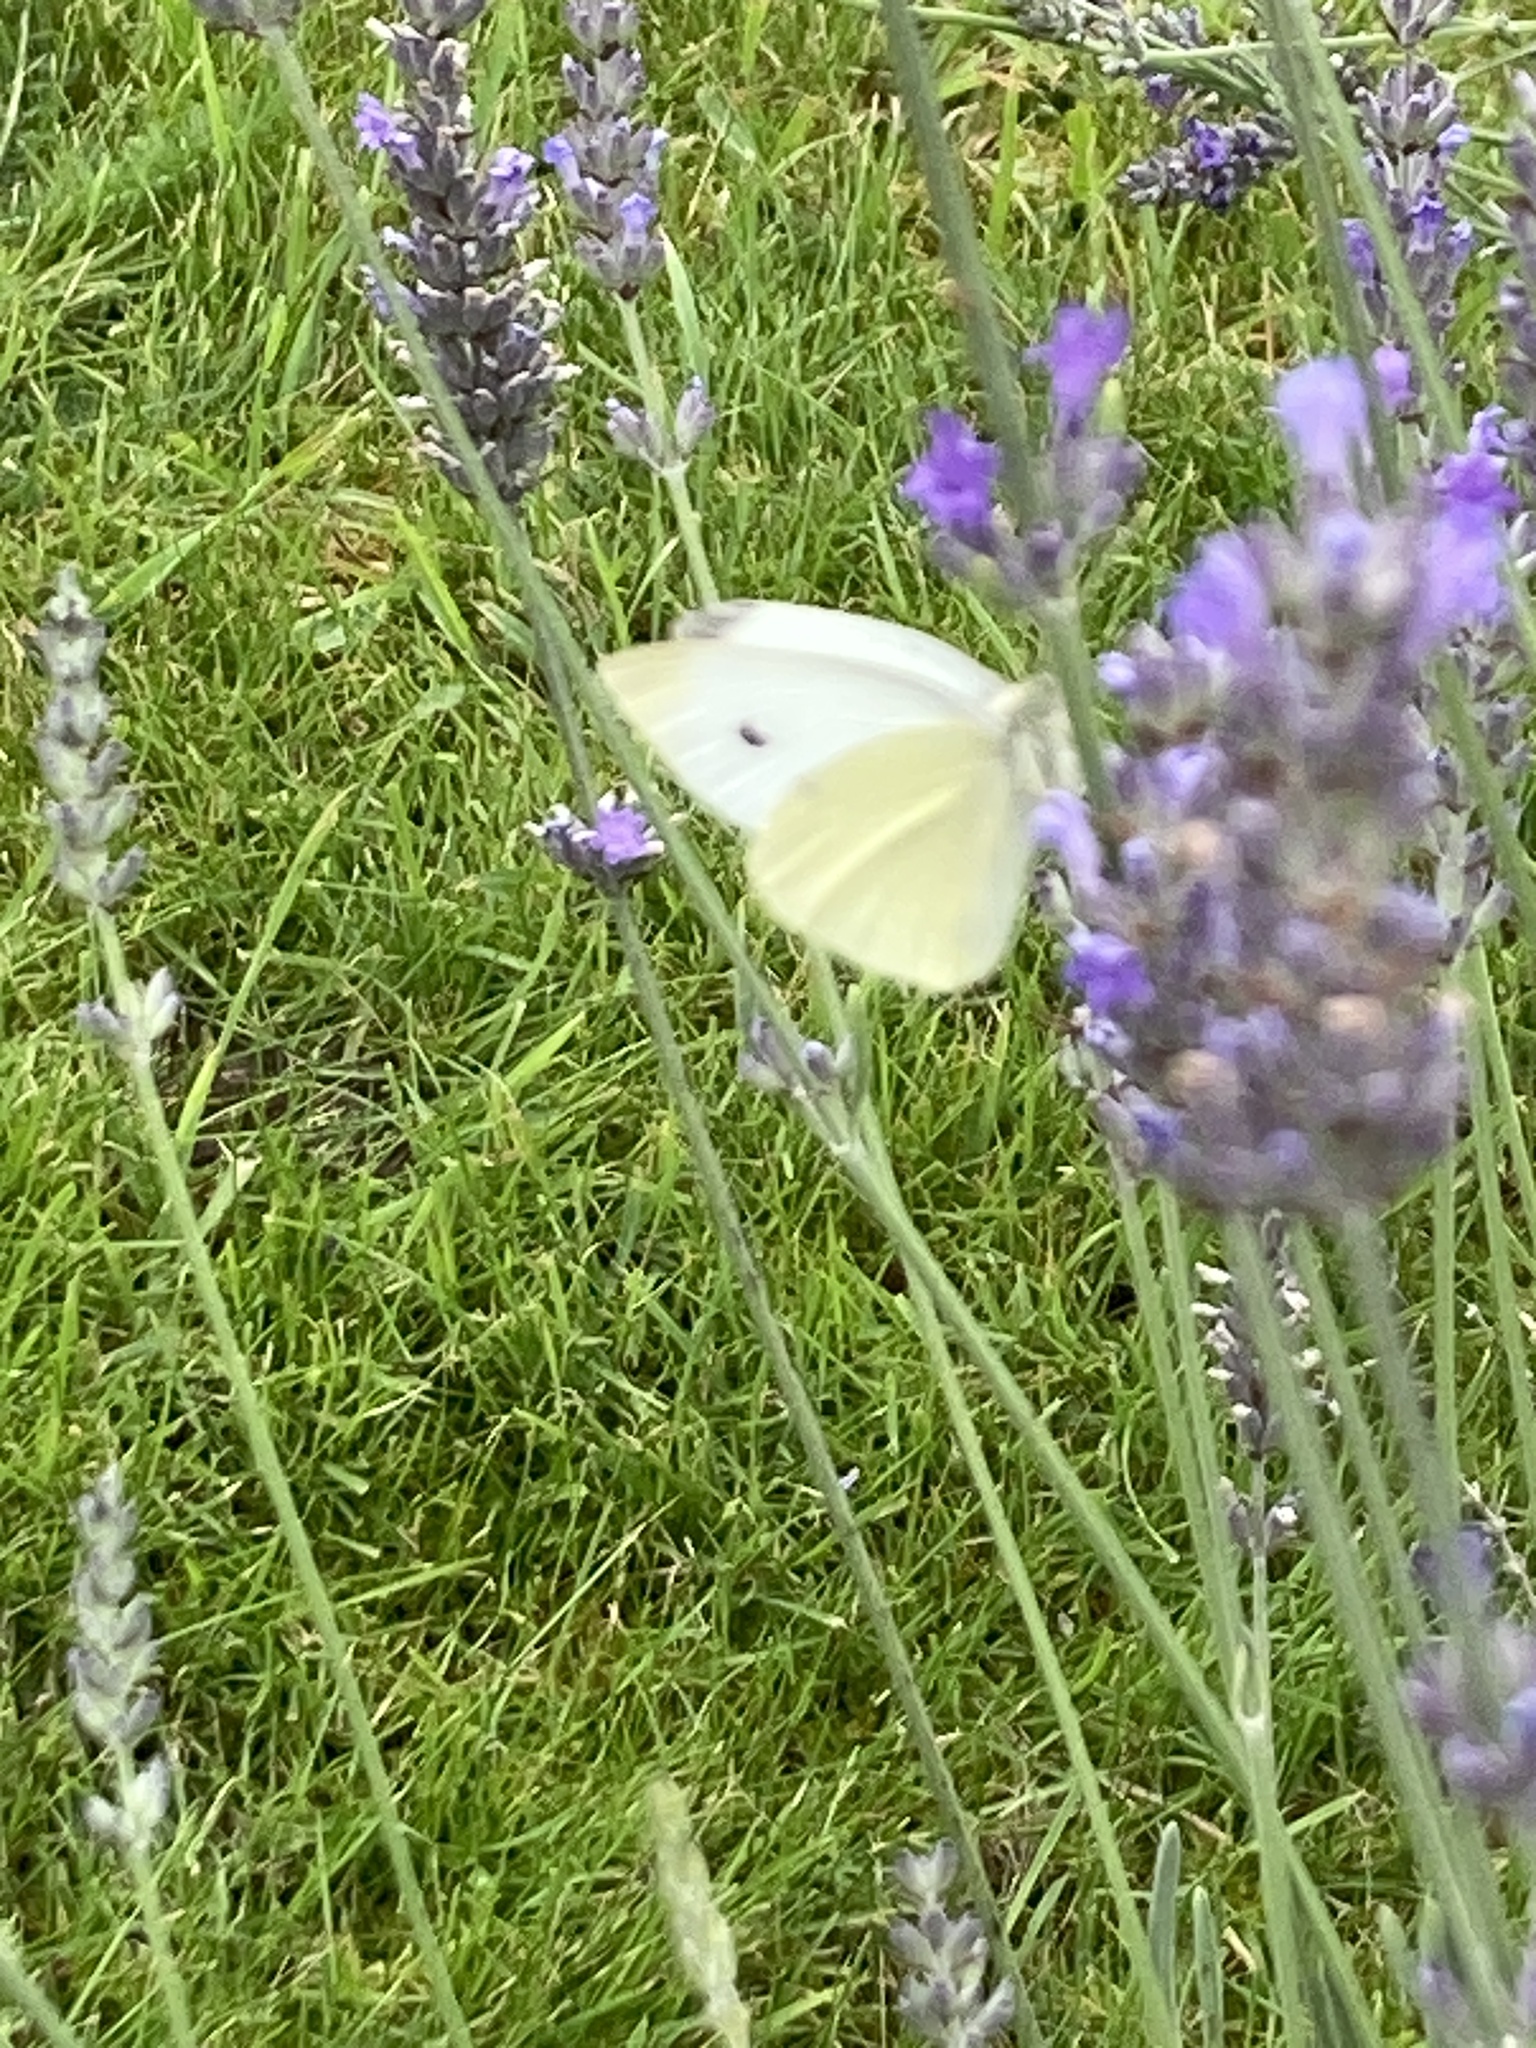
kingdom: Animalia
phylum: Arthropoda
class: Insecta
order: Lepidoptera
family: Pieridae
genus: Pieris
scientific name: Pieris rapae
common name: Small white
